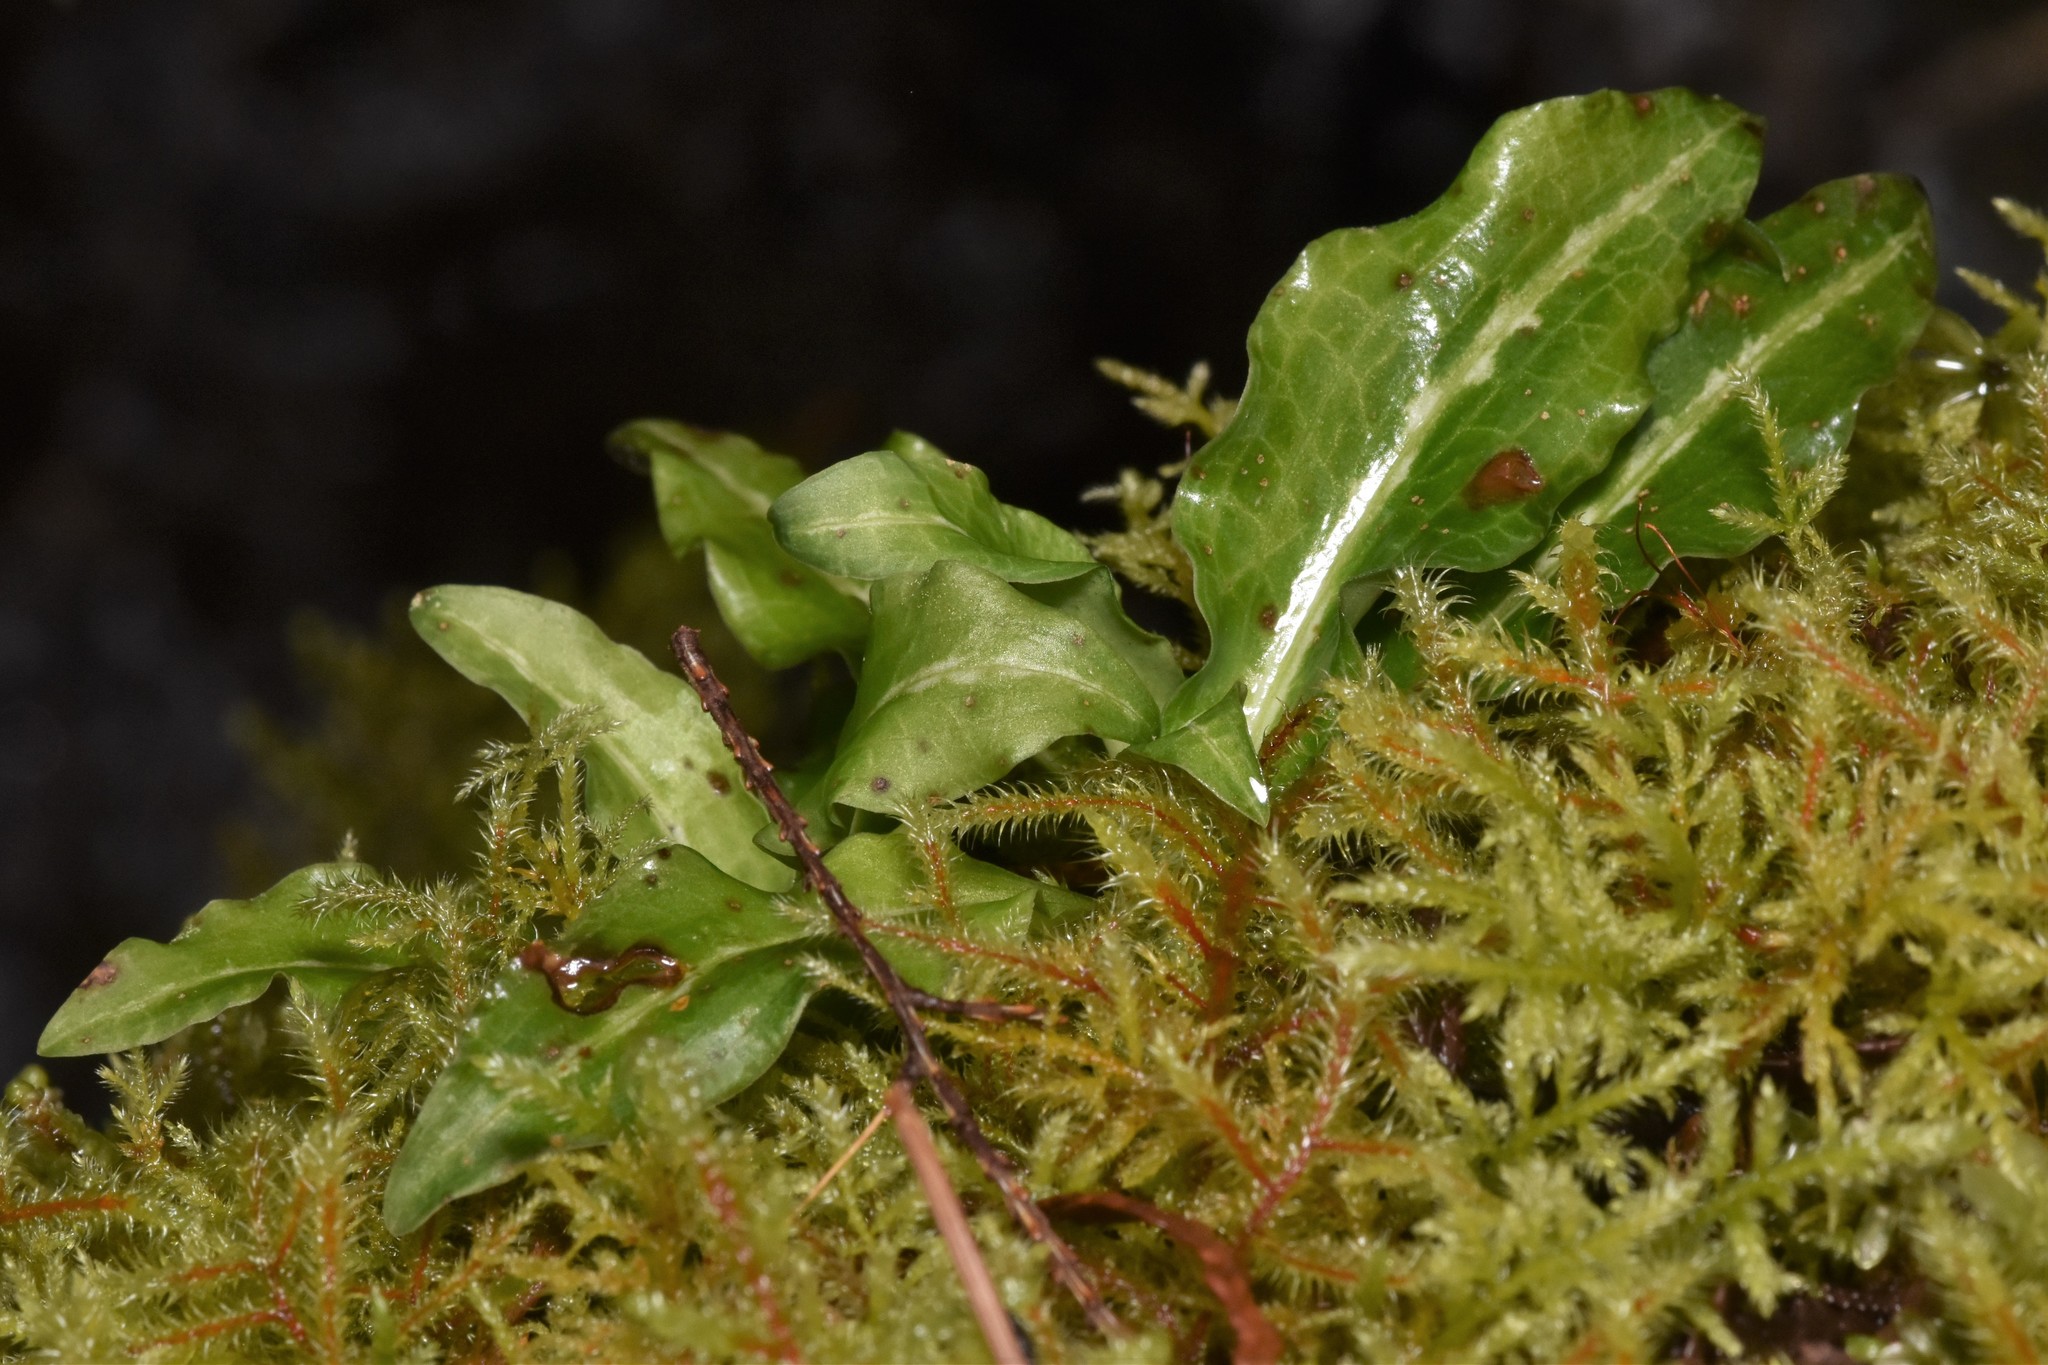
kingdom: Plantae
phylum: Tracheophyta
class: Liliopsida
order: Asparagales
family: Orchidaceae
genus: Goodyera
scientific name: Goodyera oblongifolia
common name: Giant rattlesnake-plantain
